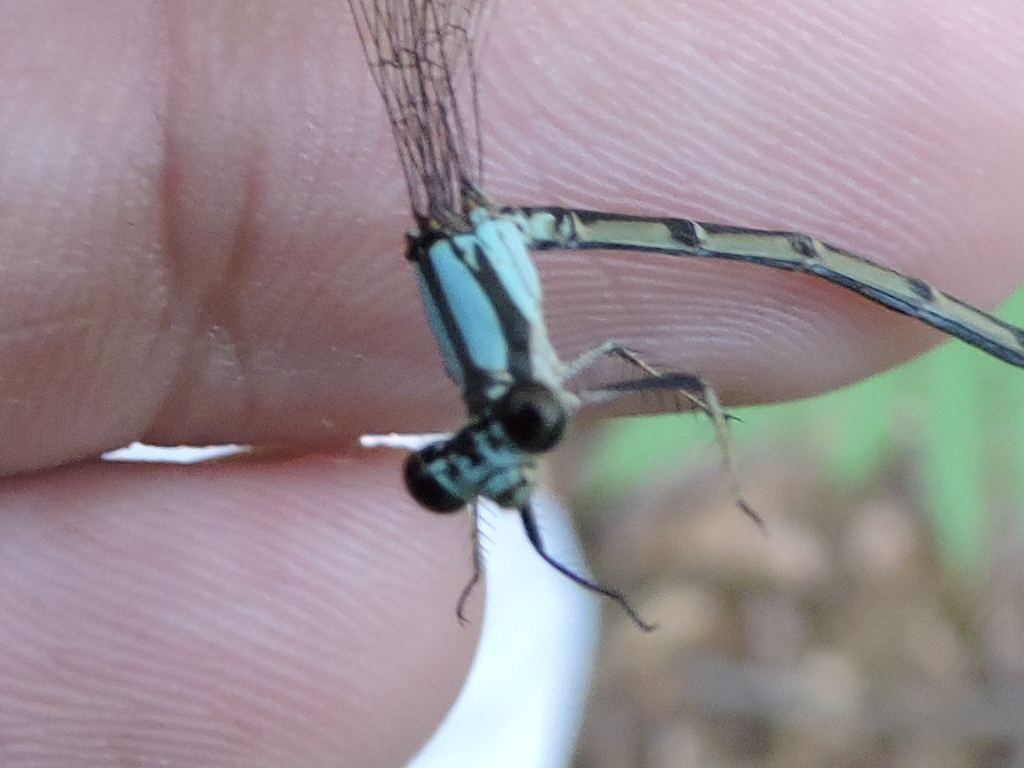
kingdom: Animalia
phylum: Arthropoda
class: Insecta
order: Odonata
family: Coenagrionidae
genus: Argia
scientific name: Argia tibialis
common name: Blue-tipped dancer
